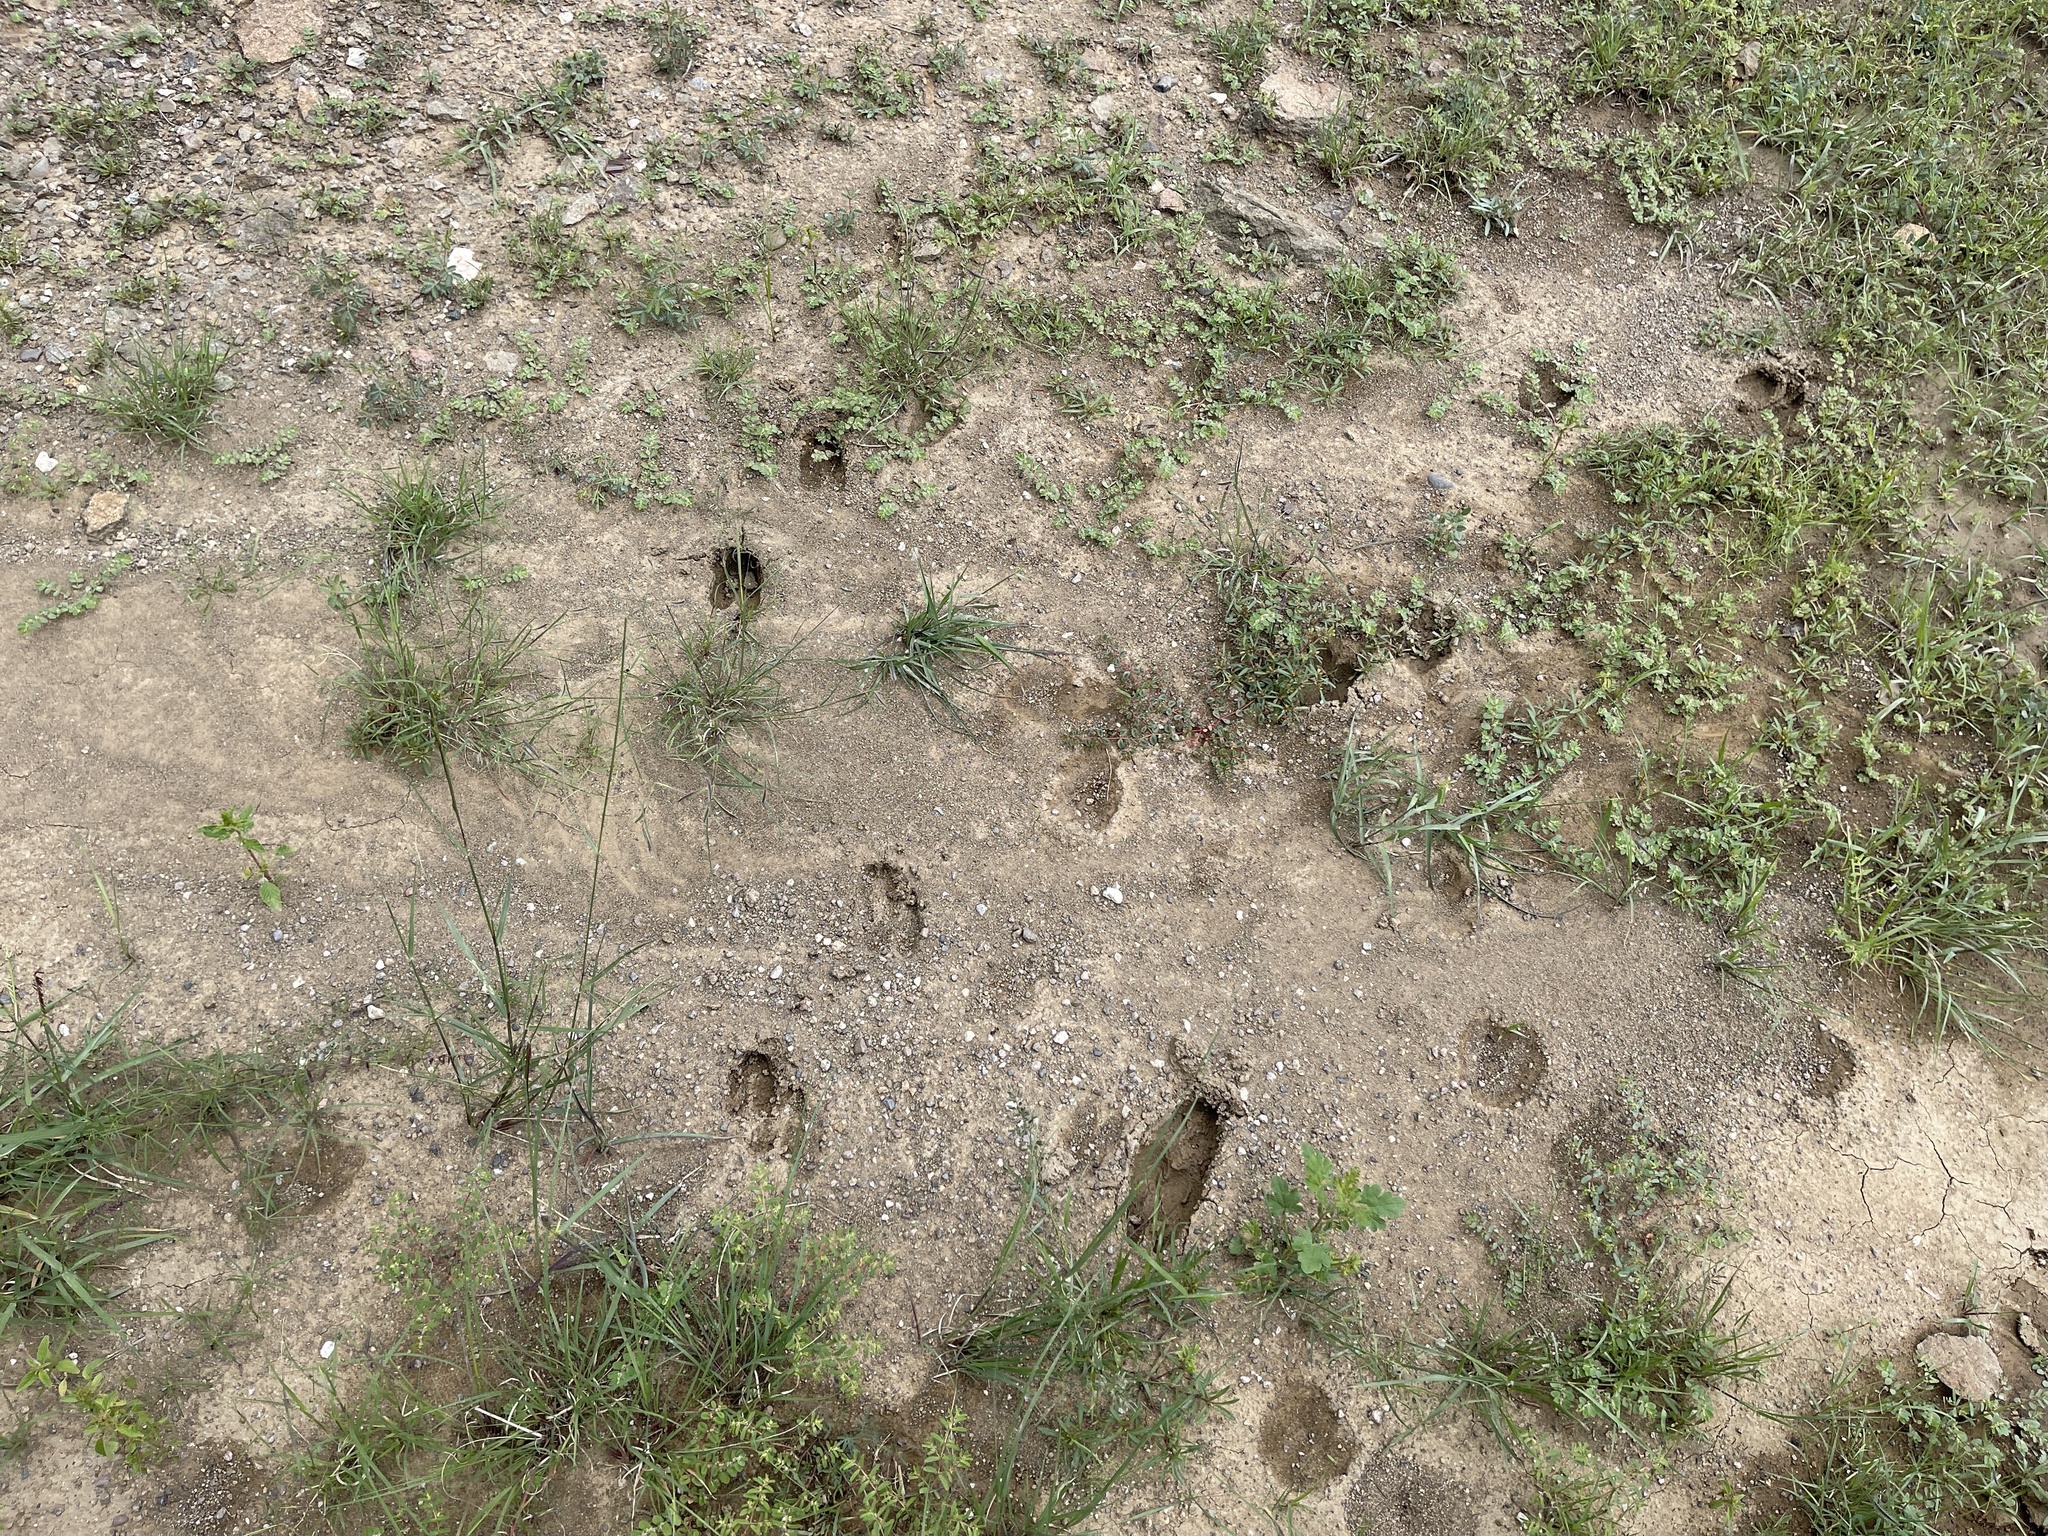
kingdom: Animalia
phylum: Chordata
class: Mammalia
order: Artiodactyla
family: Cervidae
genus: Odocoileus
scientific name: Odocoileus hemionus
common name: Mule deer
